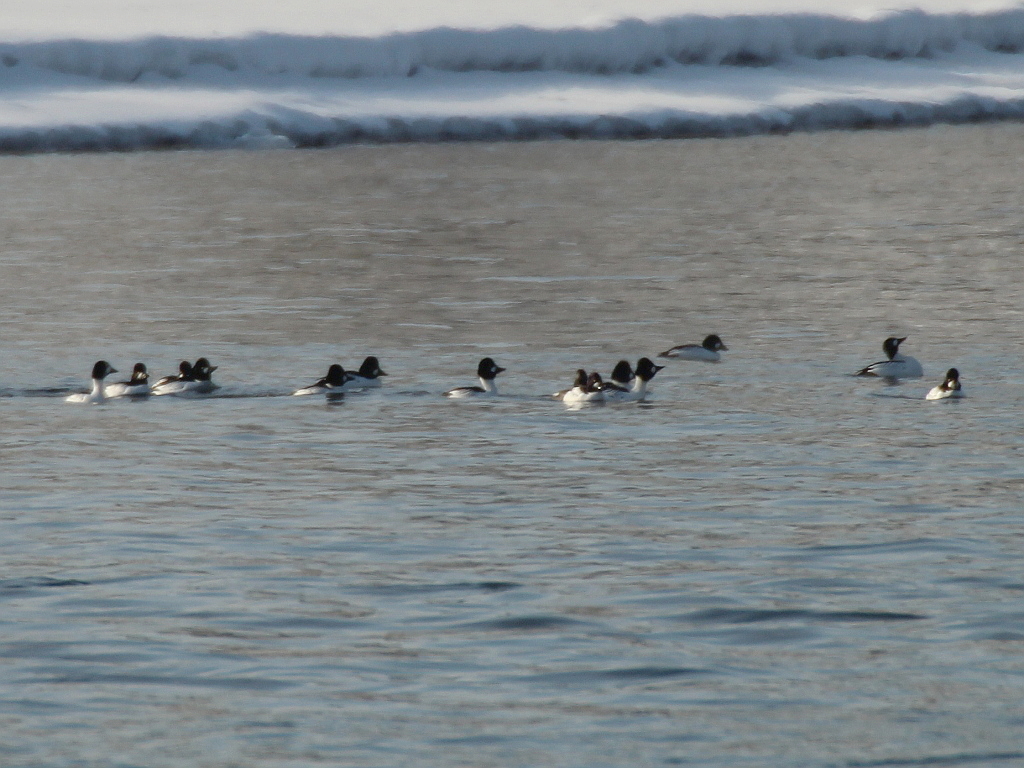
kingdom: Animalia
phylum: Chordata
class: Aves
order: Anseriformes
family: Anatidae
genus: Bucephala
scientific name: Bucephala clangula
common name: Common goldeneye
